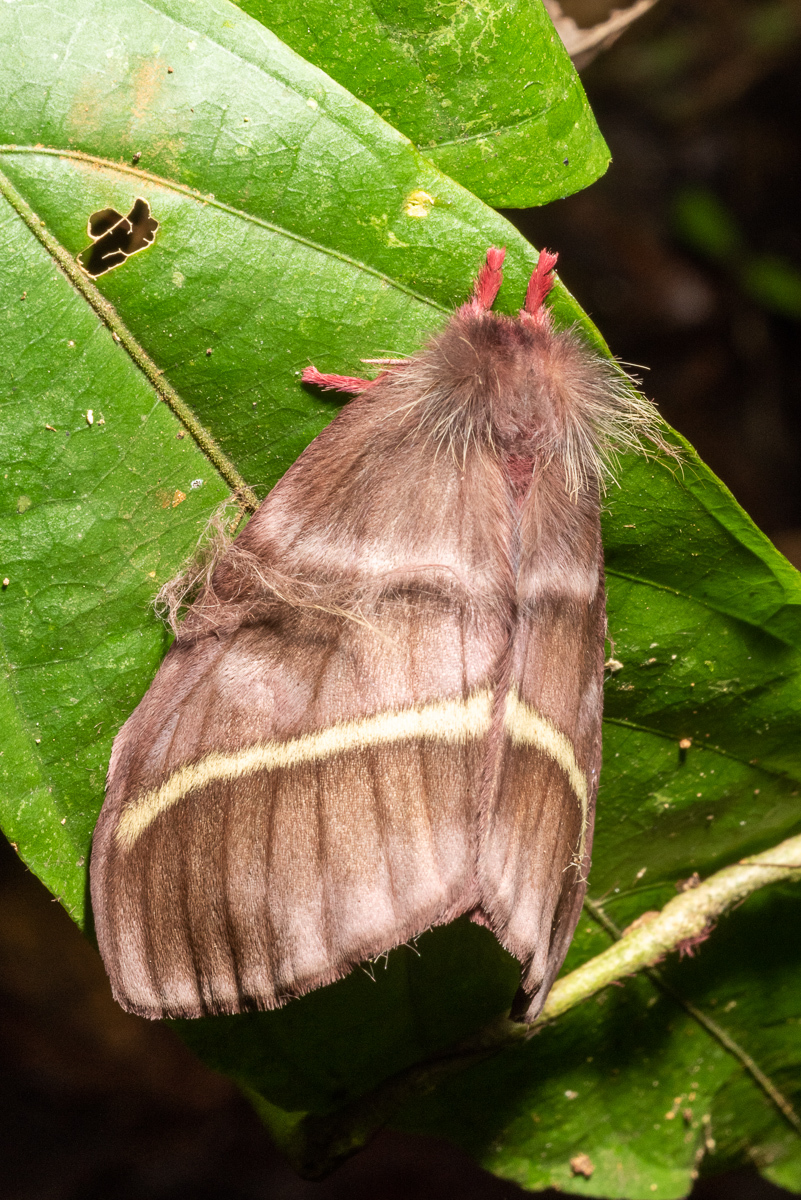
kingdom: Animalia
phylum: Arthropoda
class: Insecta
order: Lepidoptera
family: Saturniidae
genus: Hylesiopsis
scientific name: Hylesiopsis festiva
